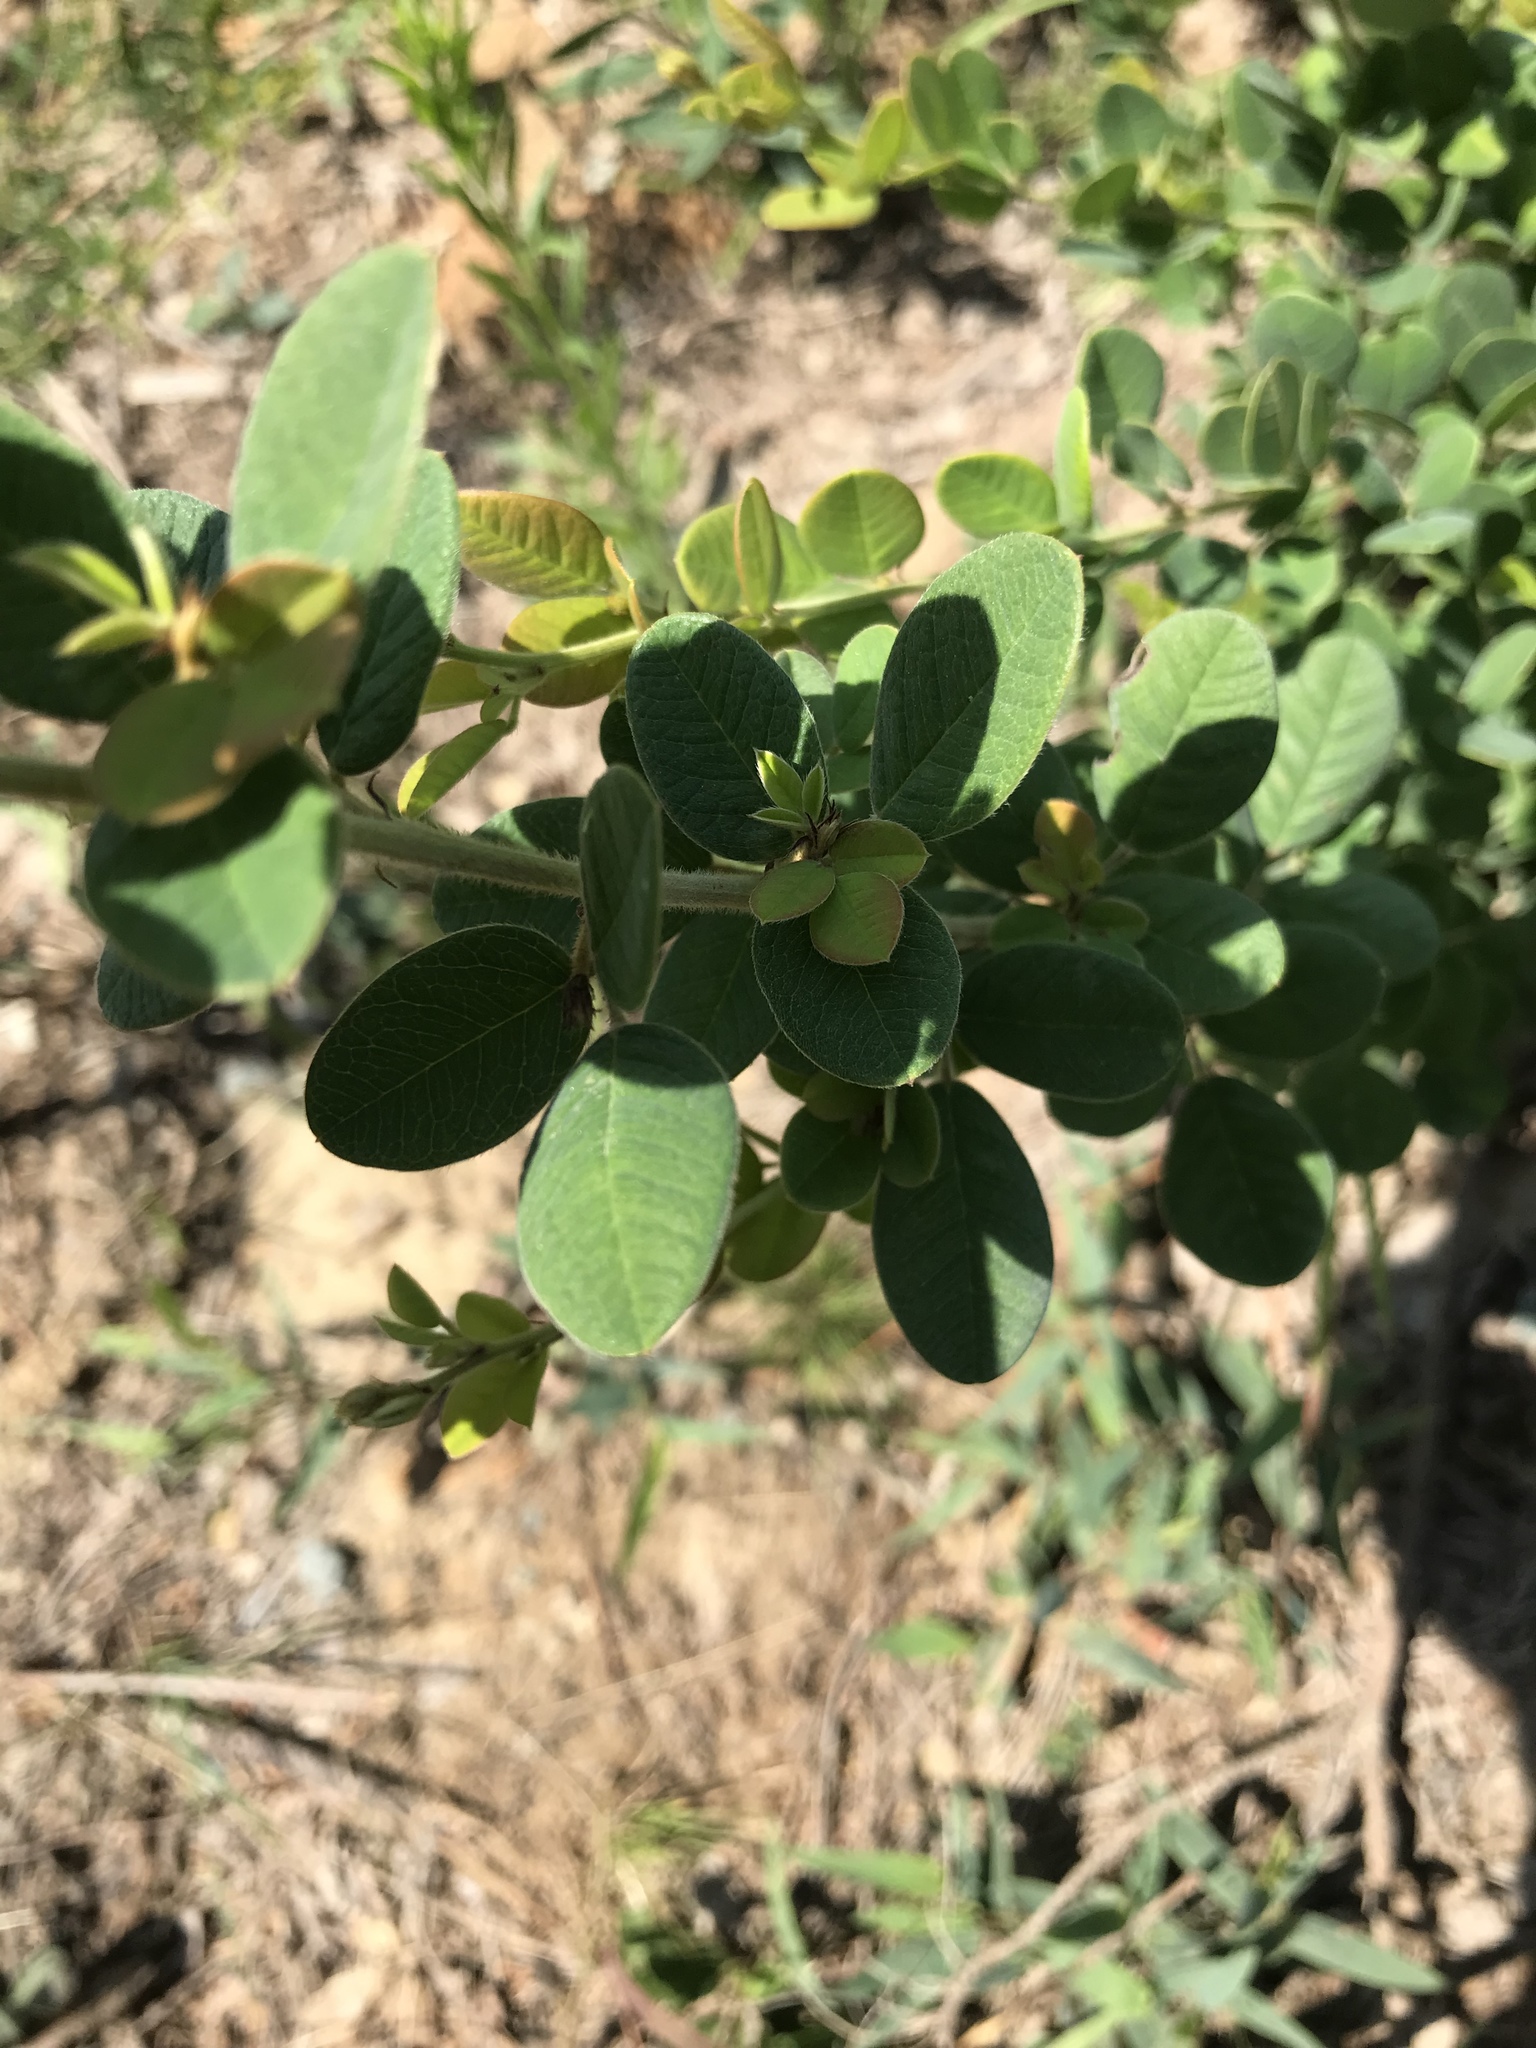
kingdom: Plantae
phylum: Tracheophyta
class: Magnoliopsida
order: Fabales
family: Fabaceae
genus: Lespedeza
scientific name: Lespedeza hirta
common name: Hairy lespedeza
